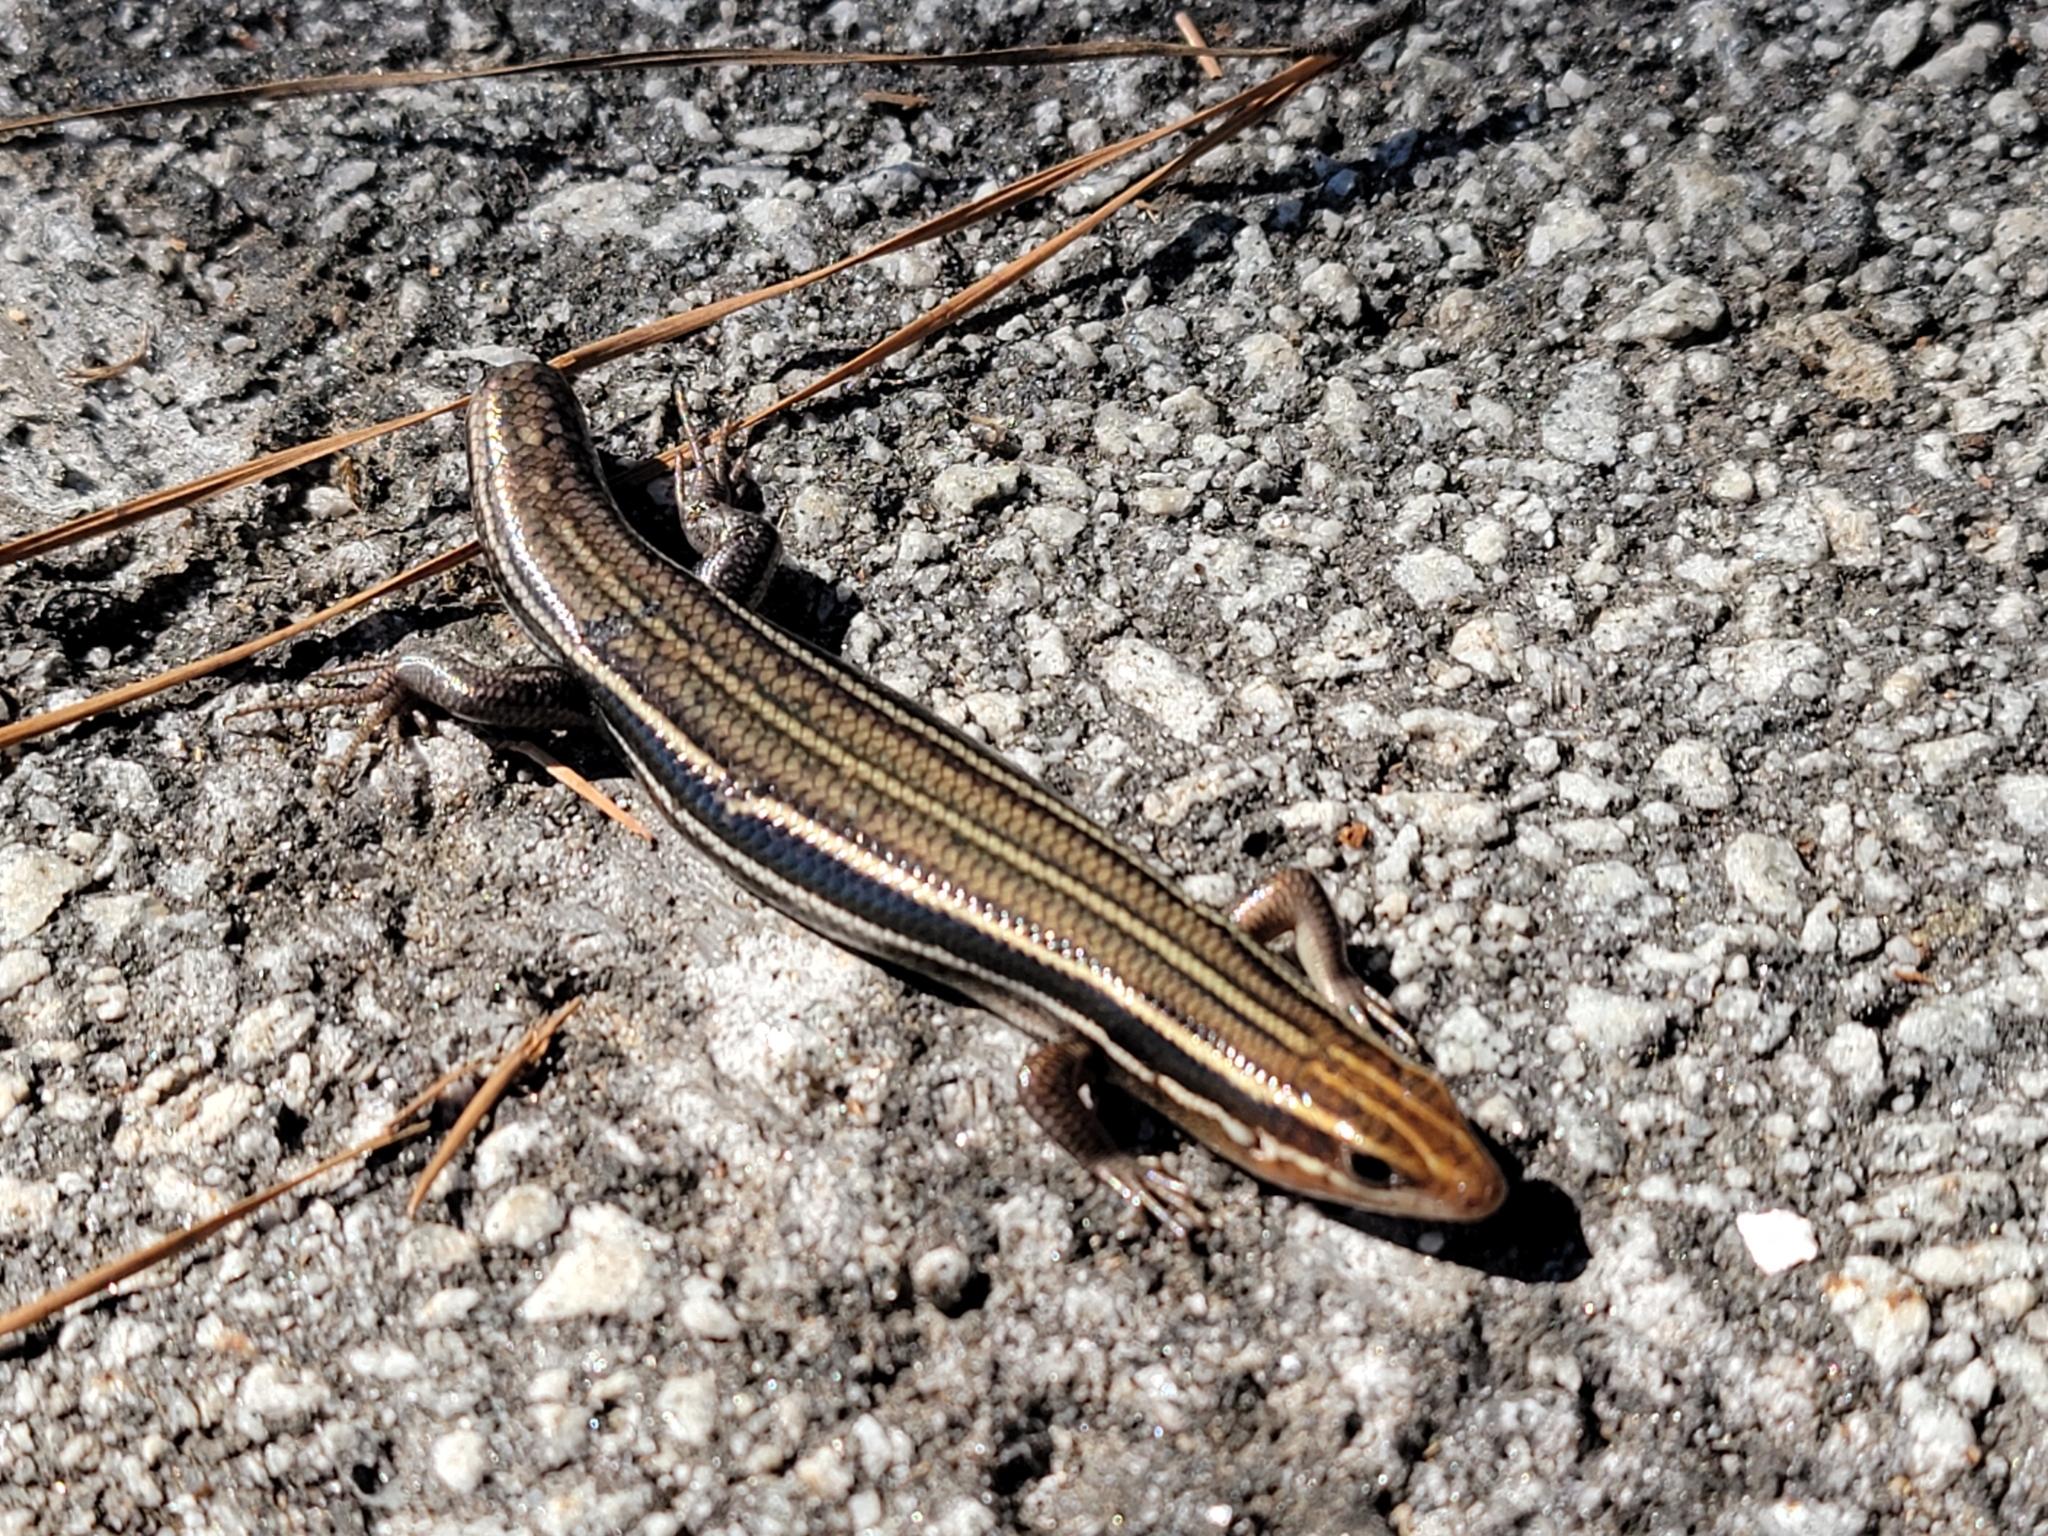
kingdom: Animalia
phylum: Chordata
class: Squamata
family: Scincidae
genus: Plestiodon
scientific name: Plestiodon inexpectatus
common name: Southeastern five-lined skink
